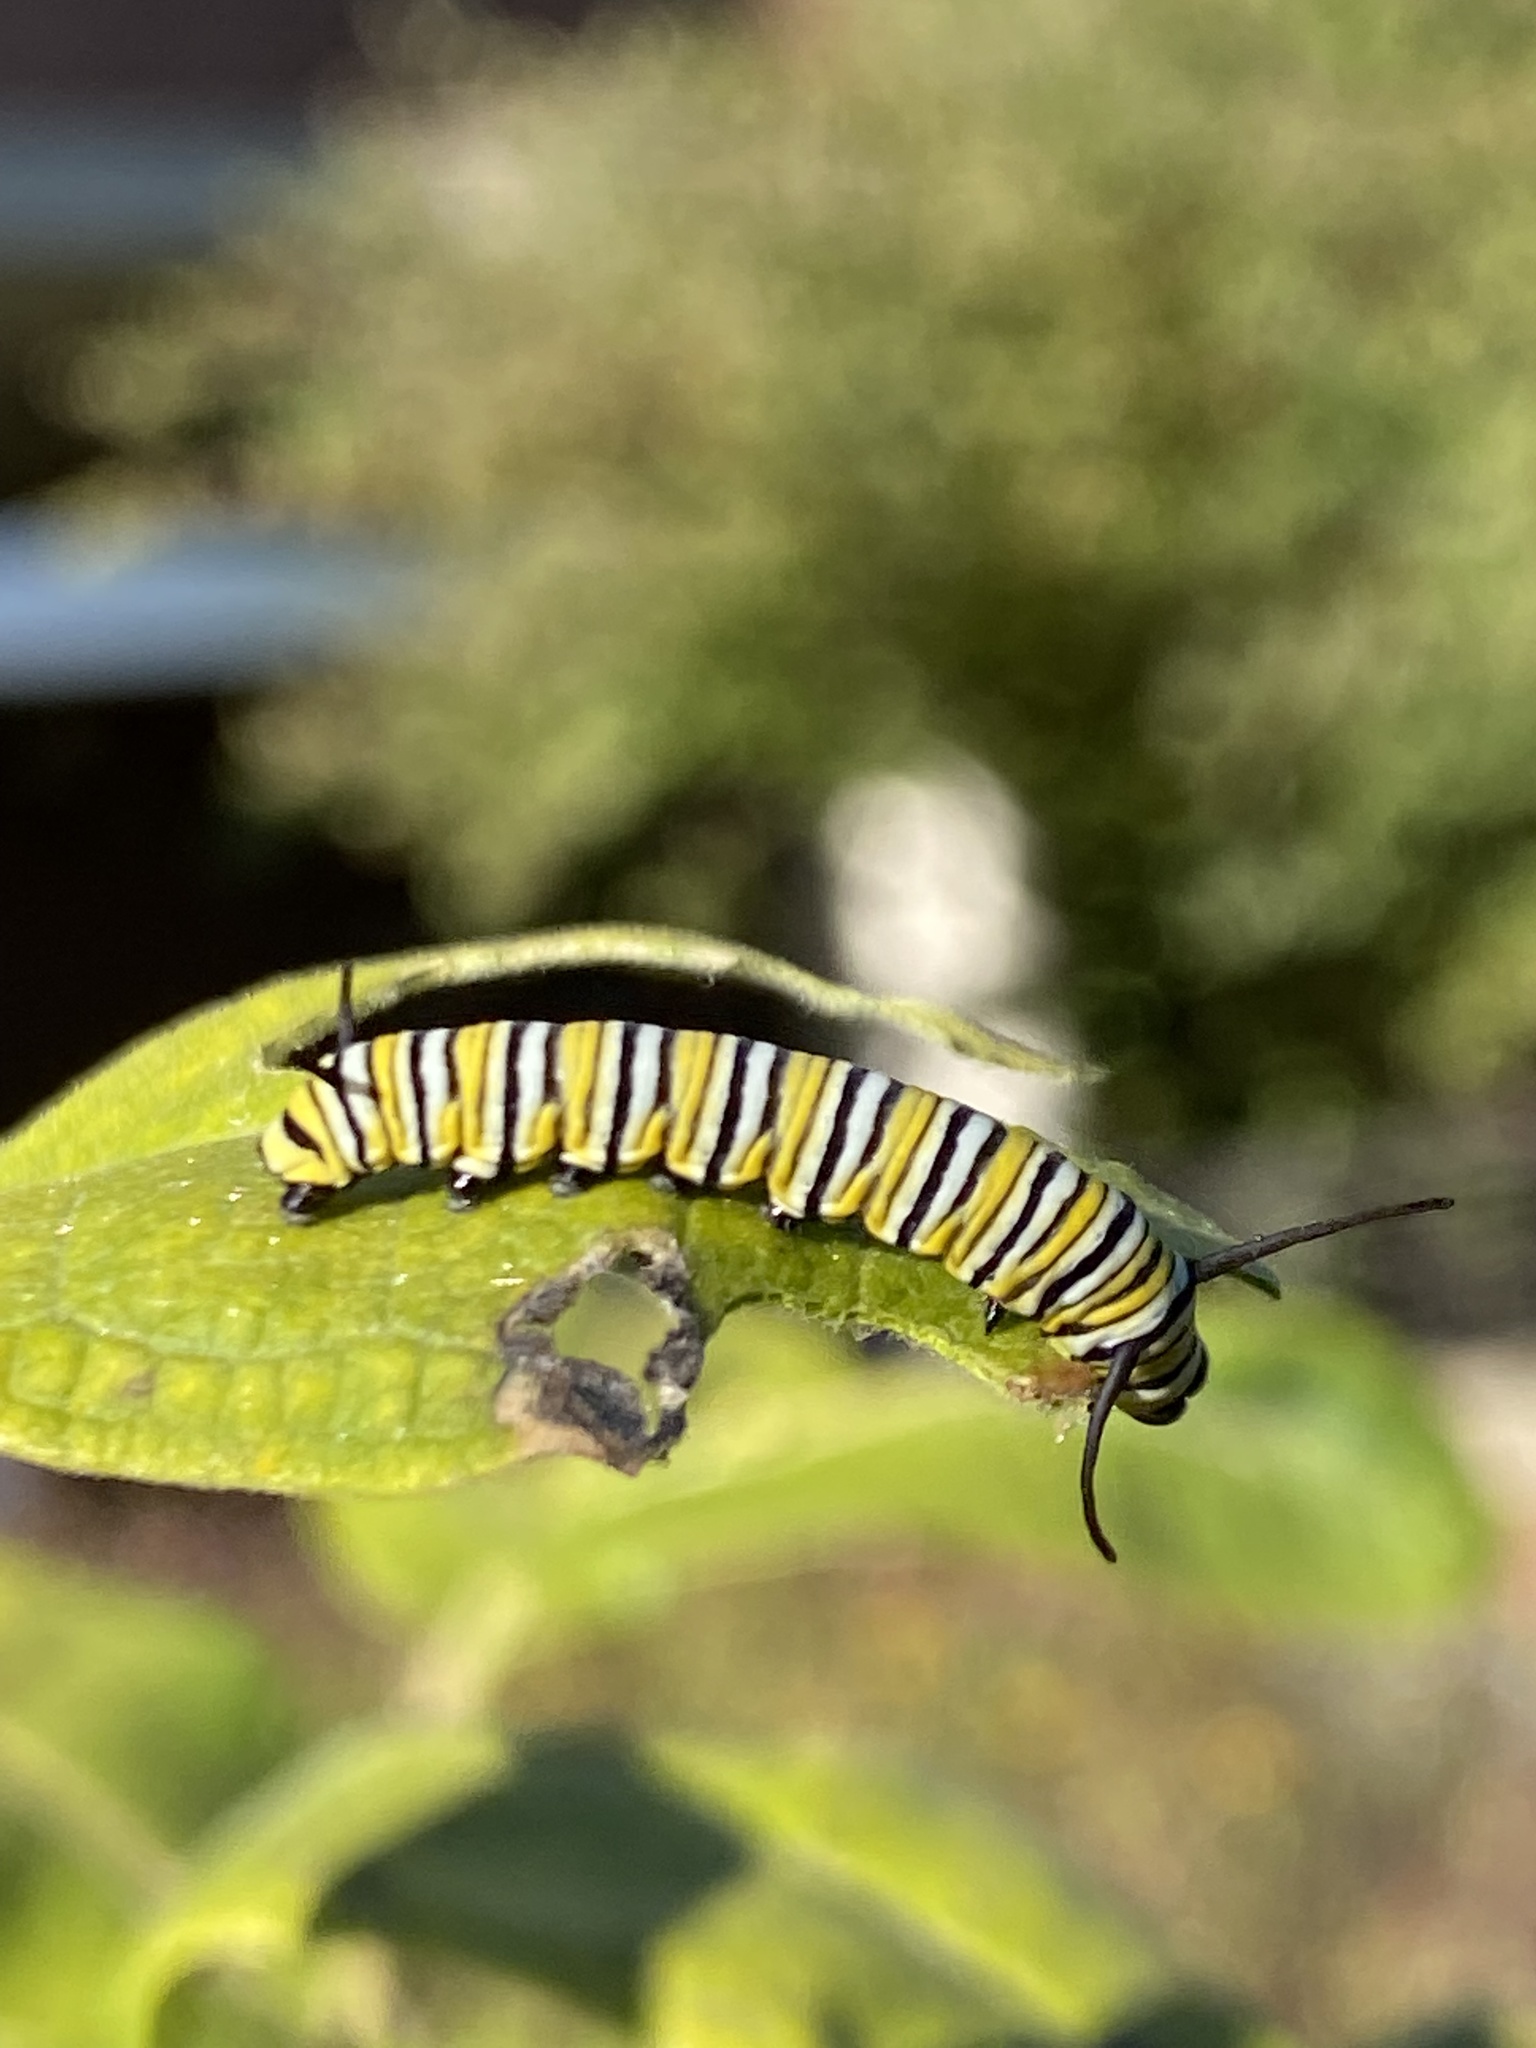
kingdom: Animalia
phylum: Arthropoda
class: Insecta
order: Lepidoptera
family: Nymphalidae
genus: Danaus
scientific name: Danaus plexippus
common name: Monarch
